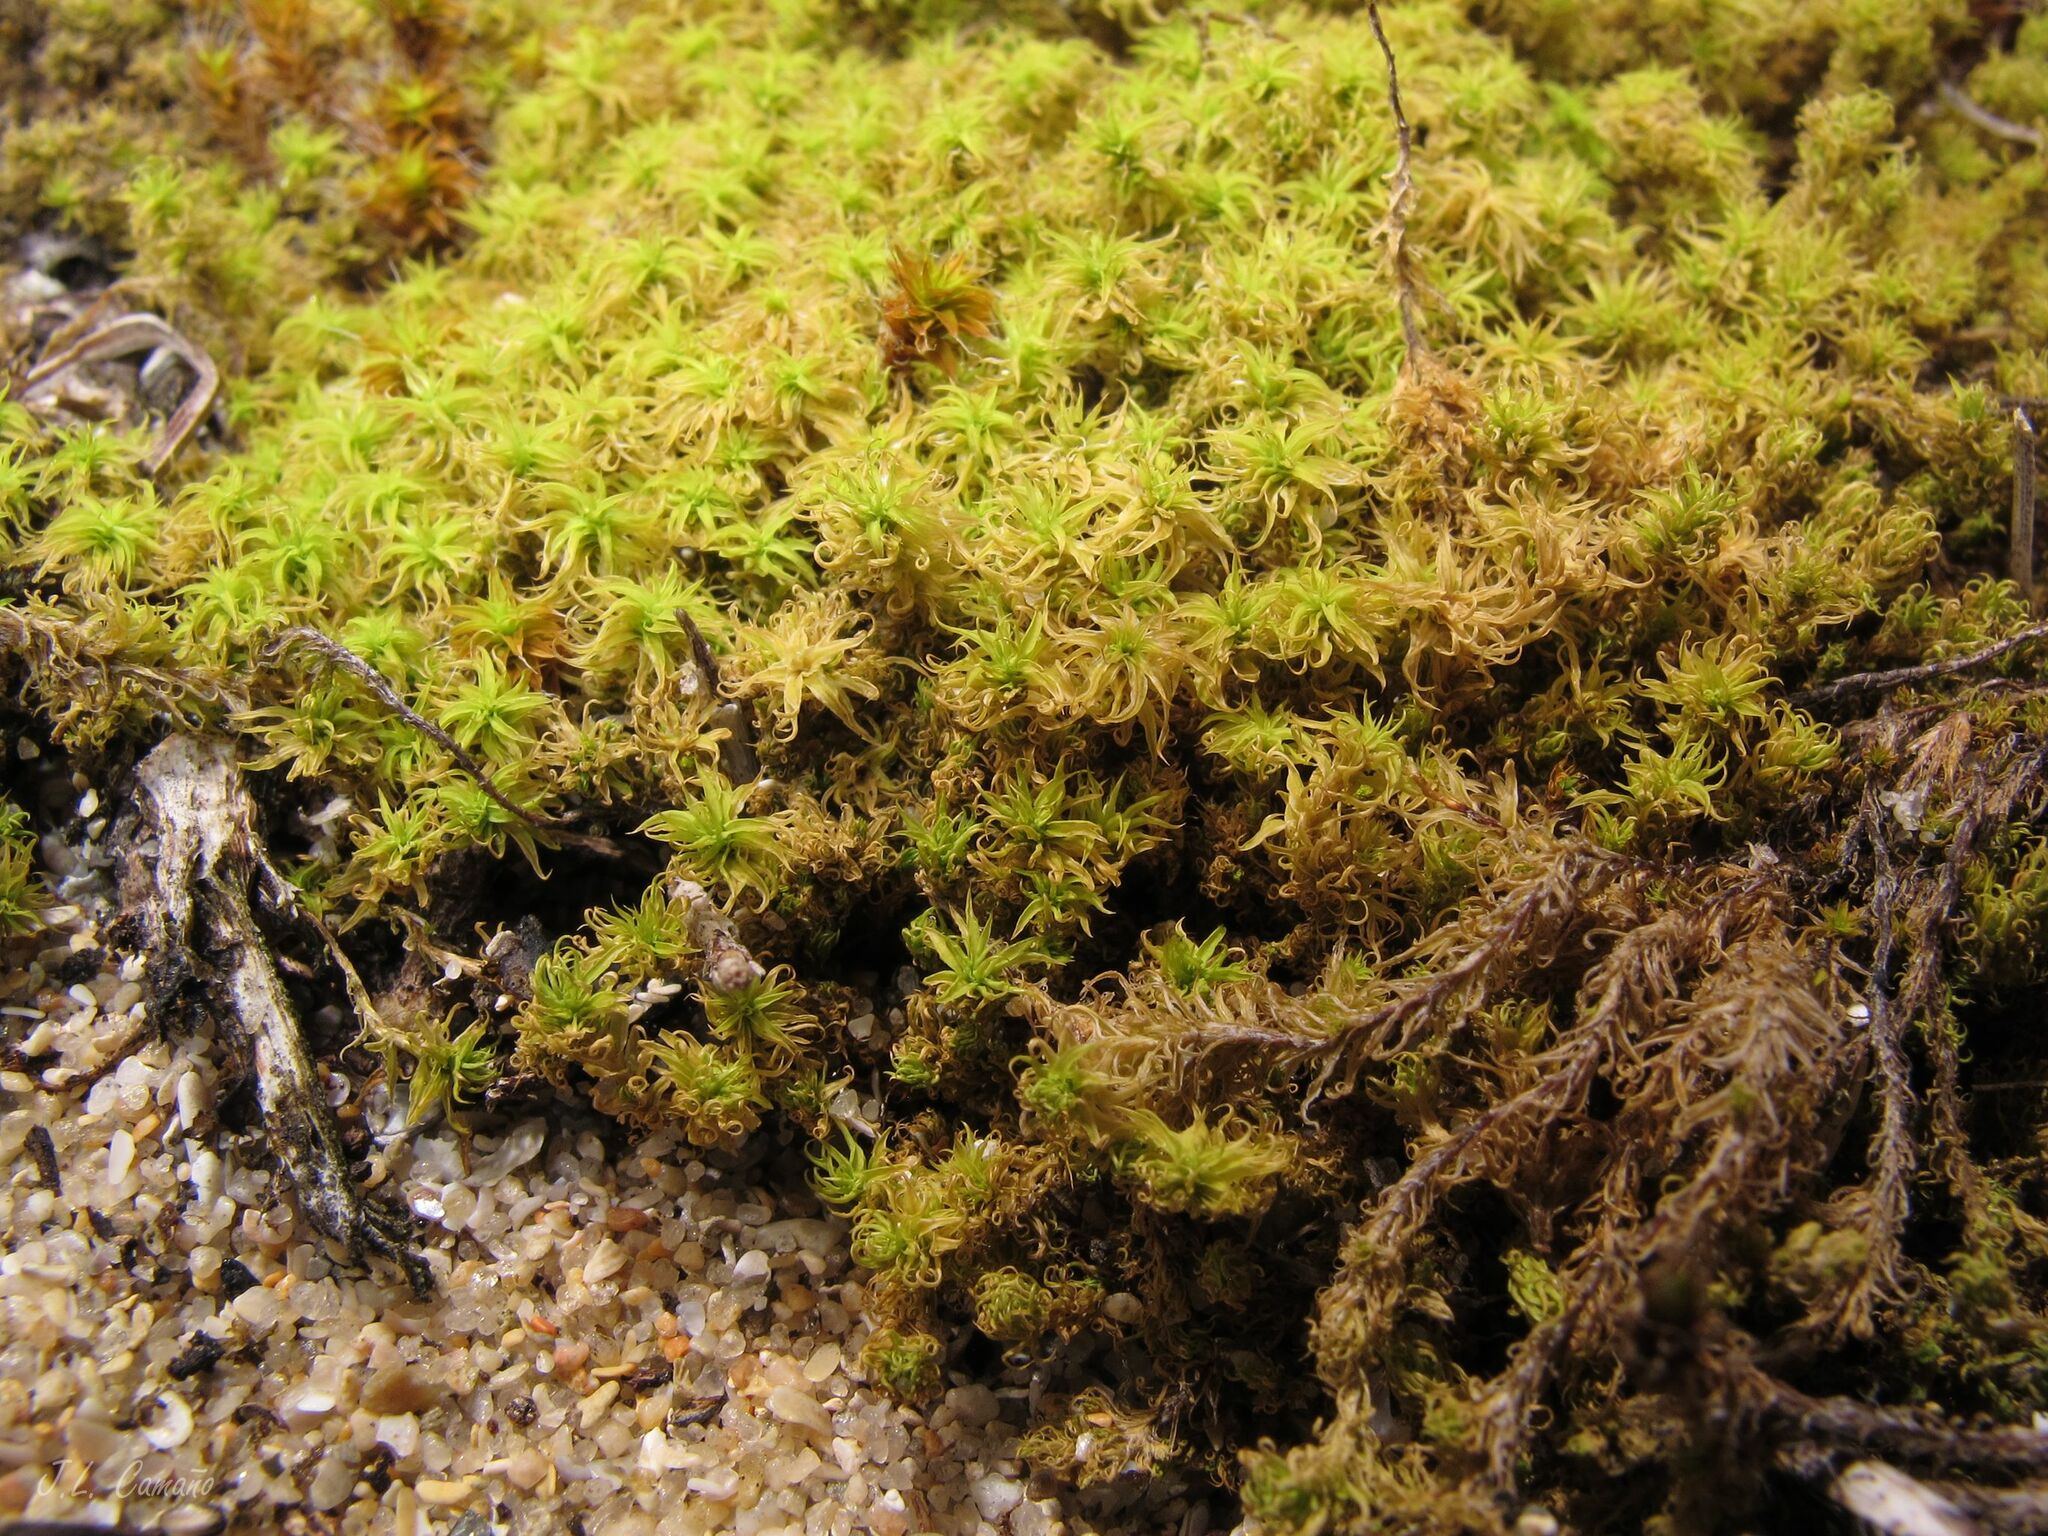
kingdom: Plantae
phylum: Bryophyta
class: Bryopsida
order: Pottiales
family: Pottiaceae
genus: Pleurochaete
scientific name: Pleurochaete squarrosa
